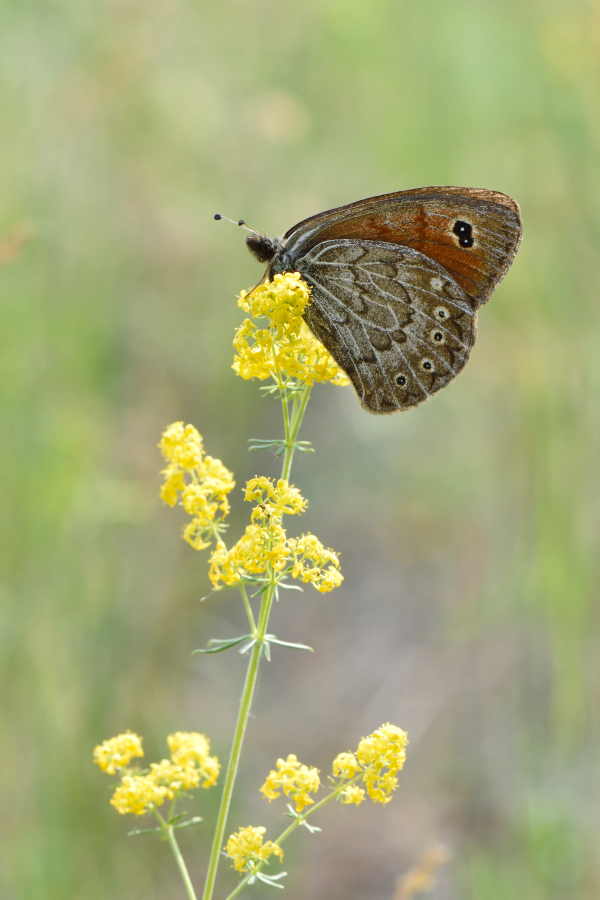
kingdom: Animalia
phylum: Arthropoda
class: Insecta
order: Lepidoptera
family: Nymphalidae
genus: Erebia
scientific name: Erebia Boeberia parmenio
